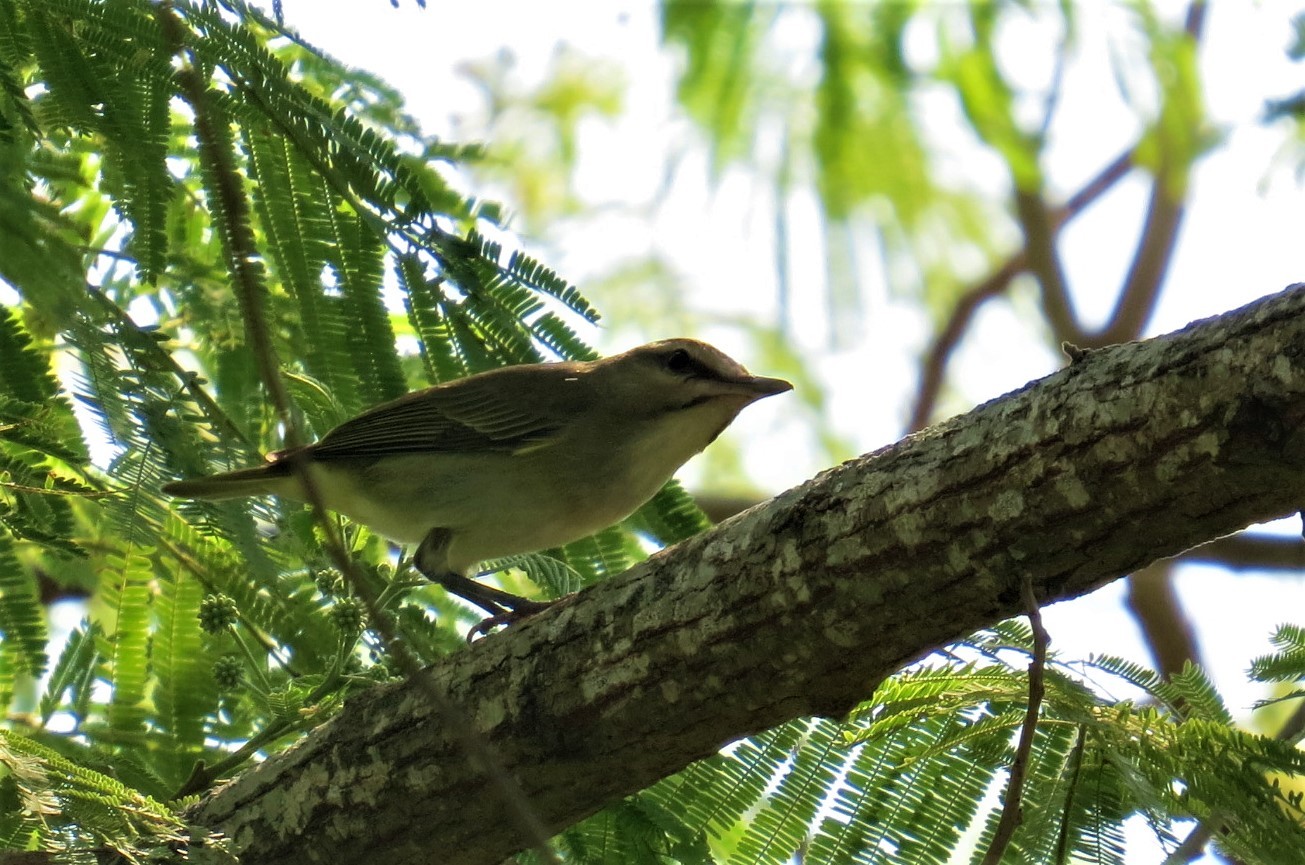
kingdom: Animalia
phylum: Chordata
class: Aves
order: Passeriformes
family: Vireonidae
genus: Vireo
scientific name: Vireo altiloquus
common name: Black-whiskered vireo
